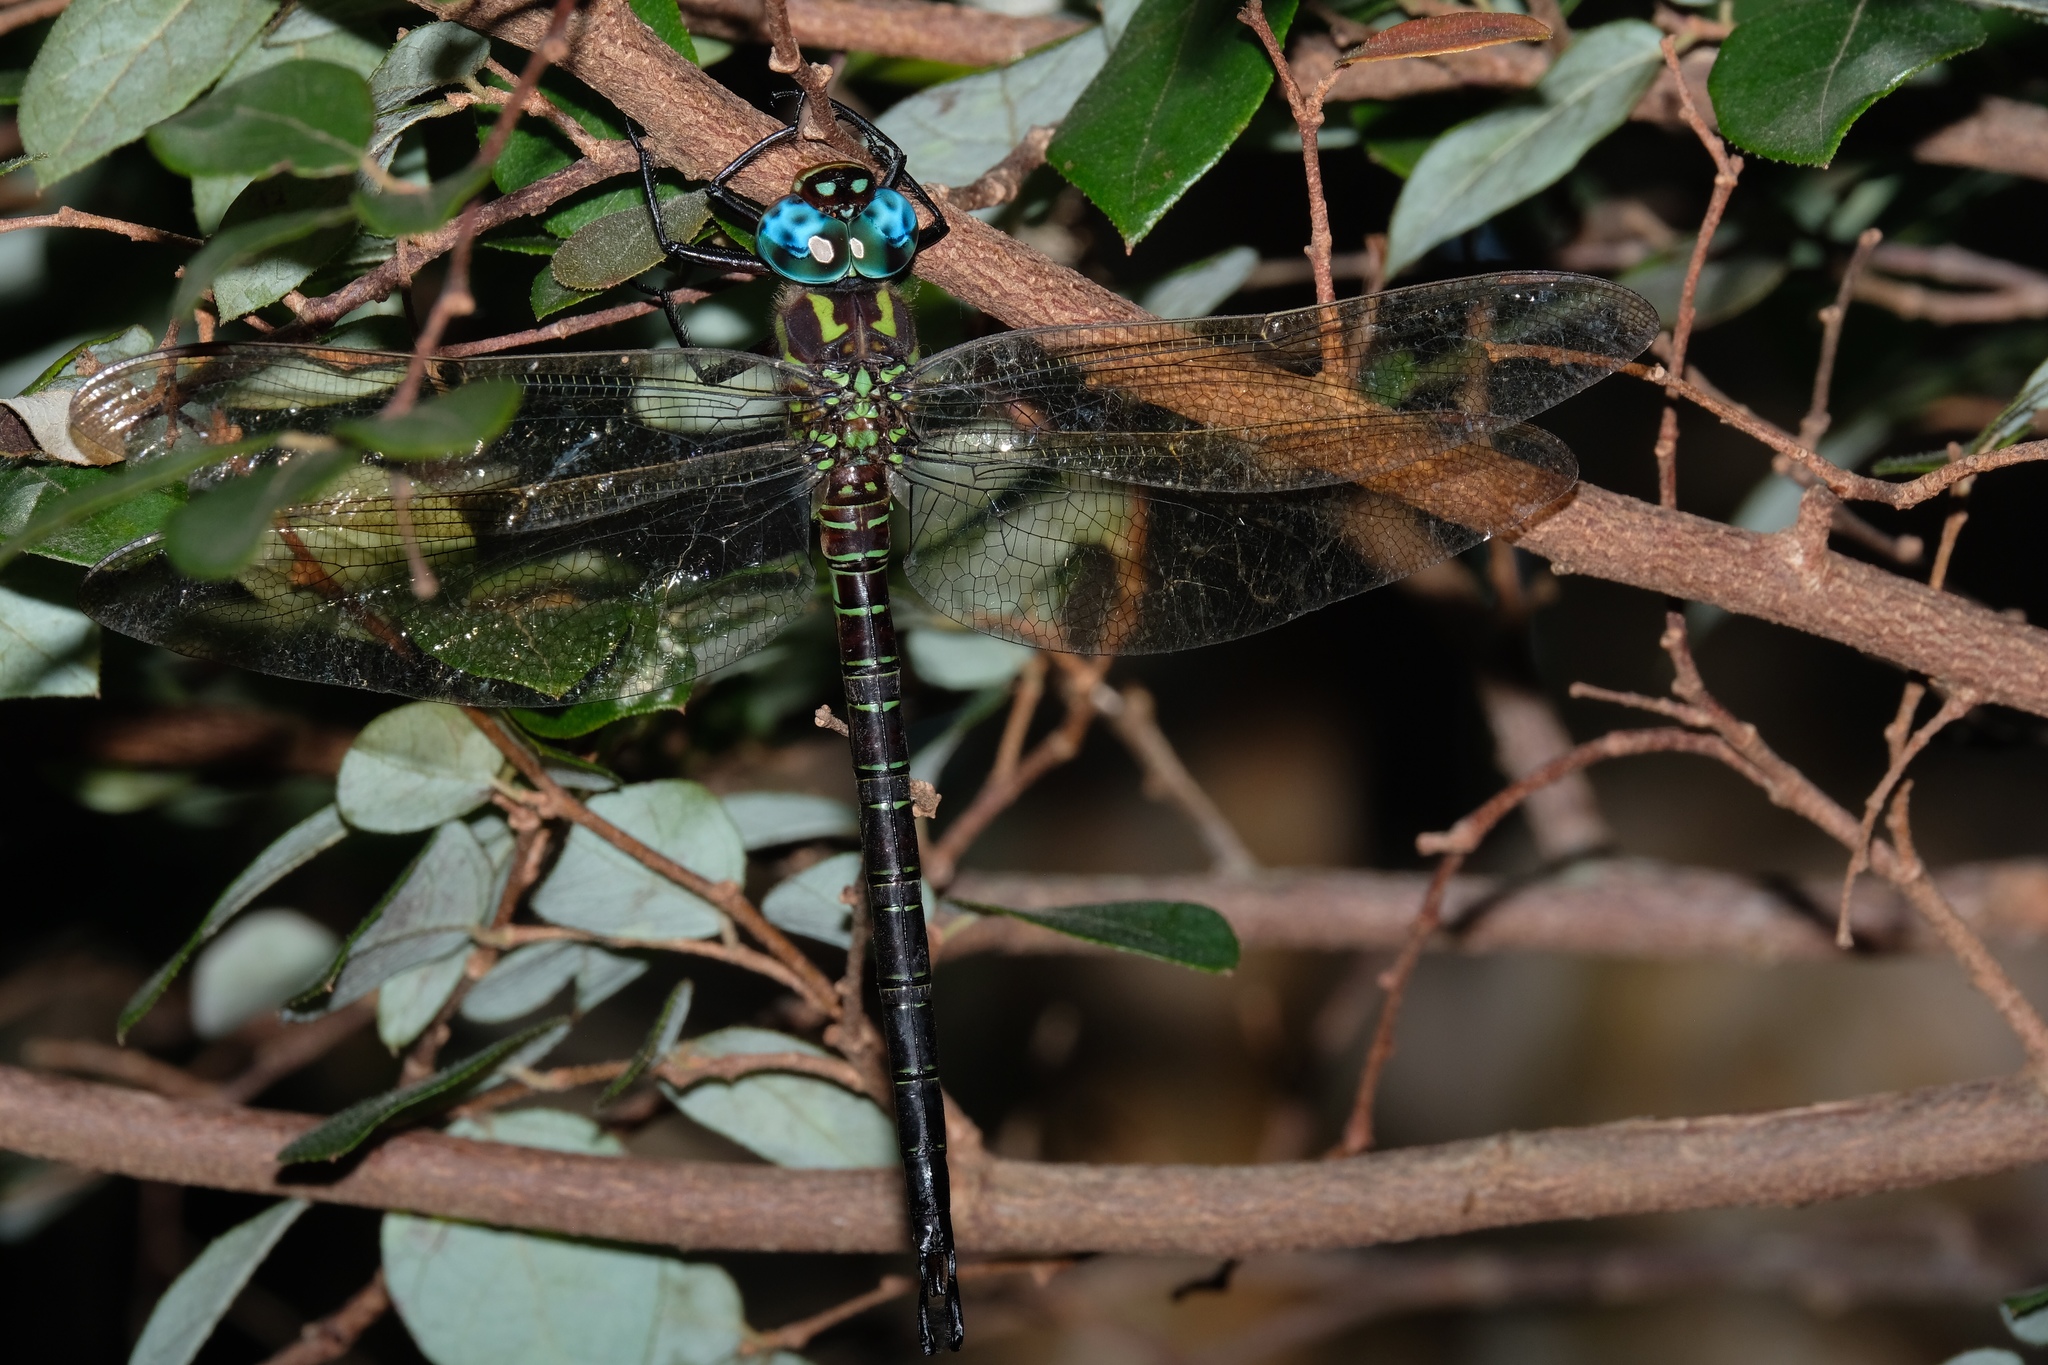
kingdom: Animalia
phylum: Arthropoda
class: Insecta
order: Odonata
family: Aeshnidae
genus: Epiaeschna
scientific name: Epiaeschna heros
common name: Swamp darner
